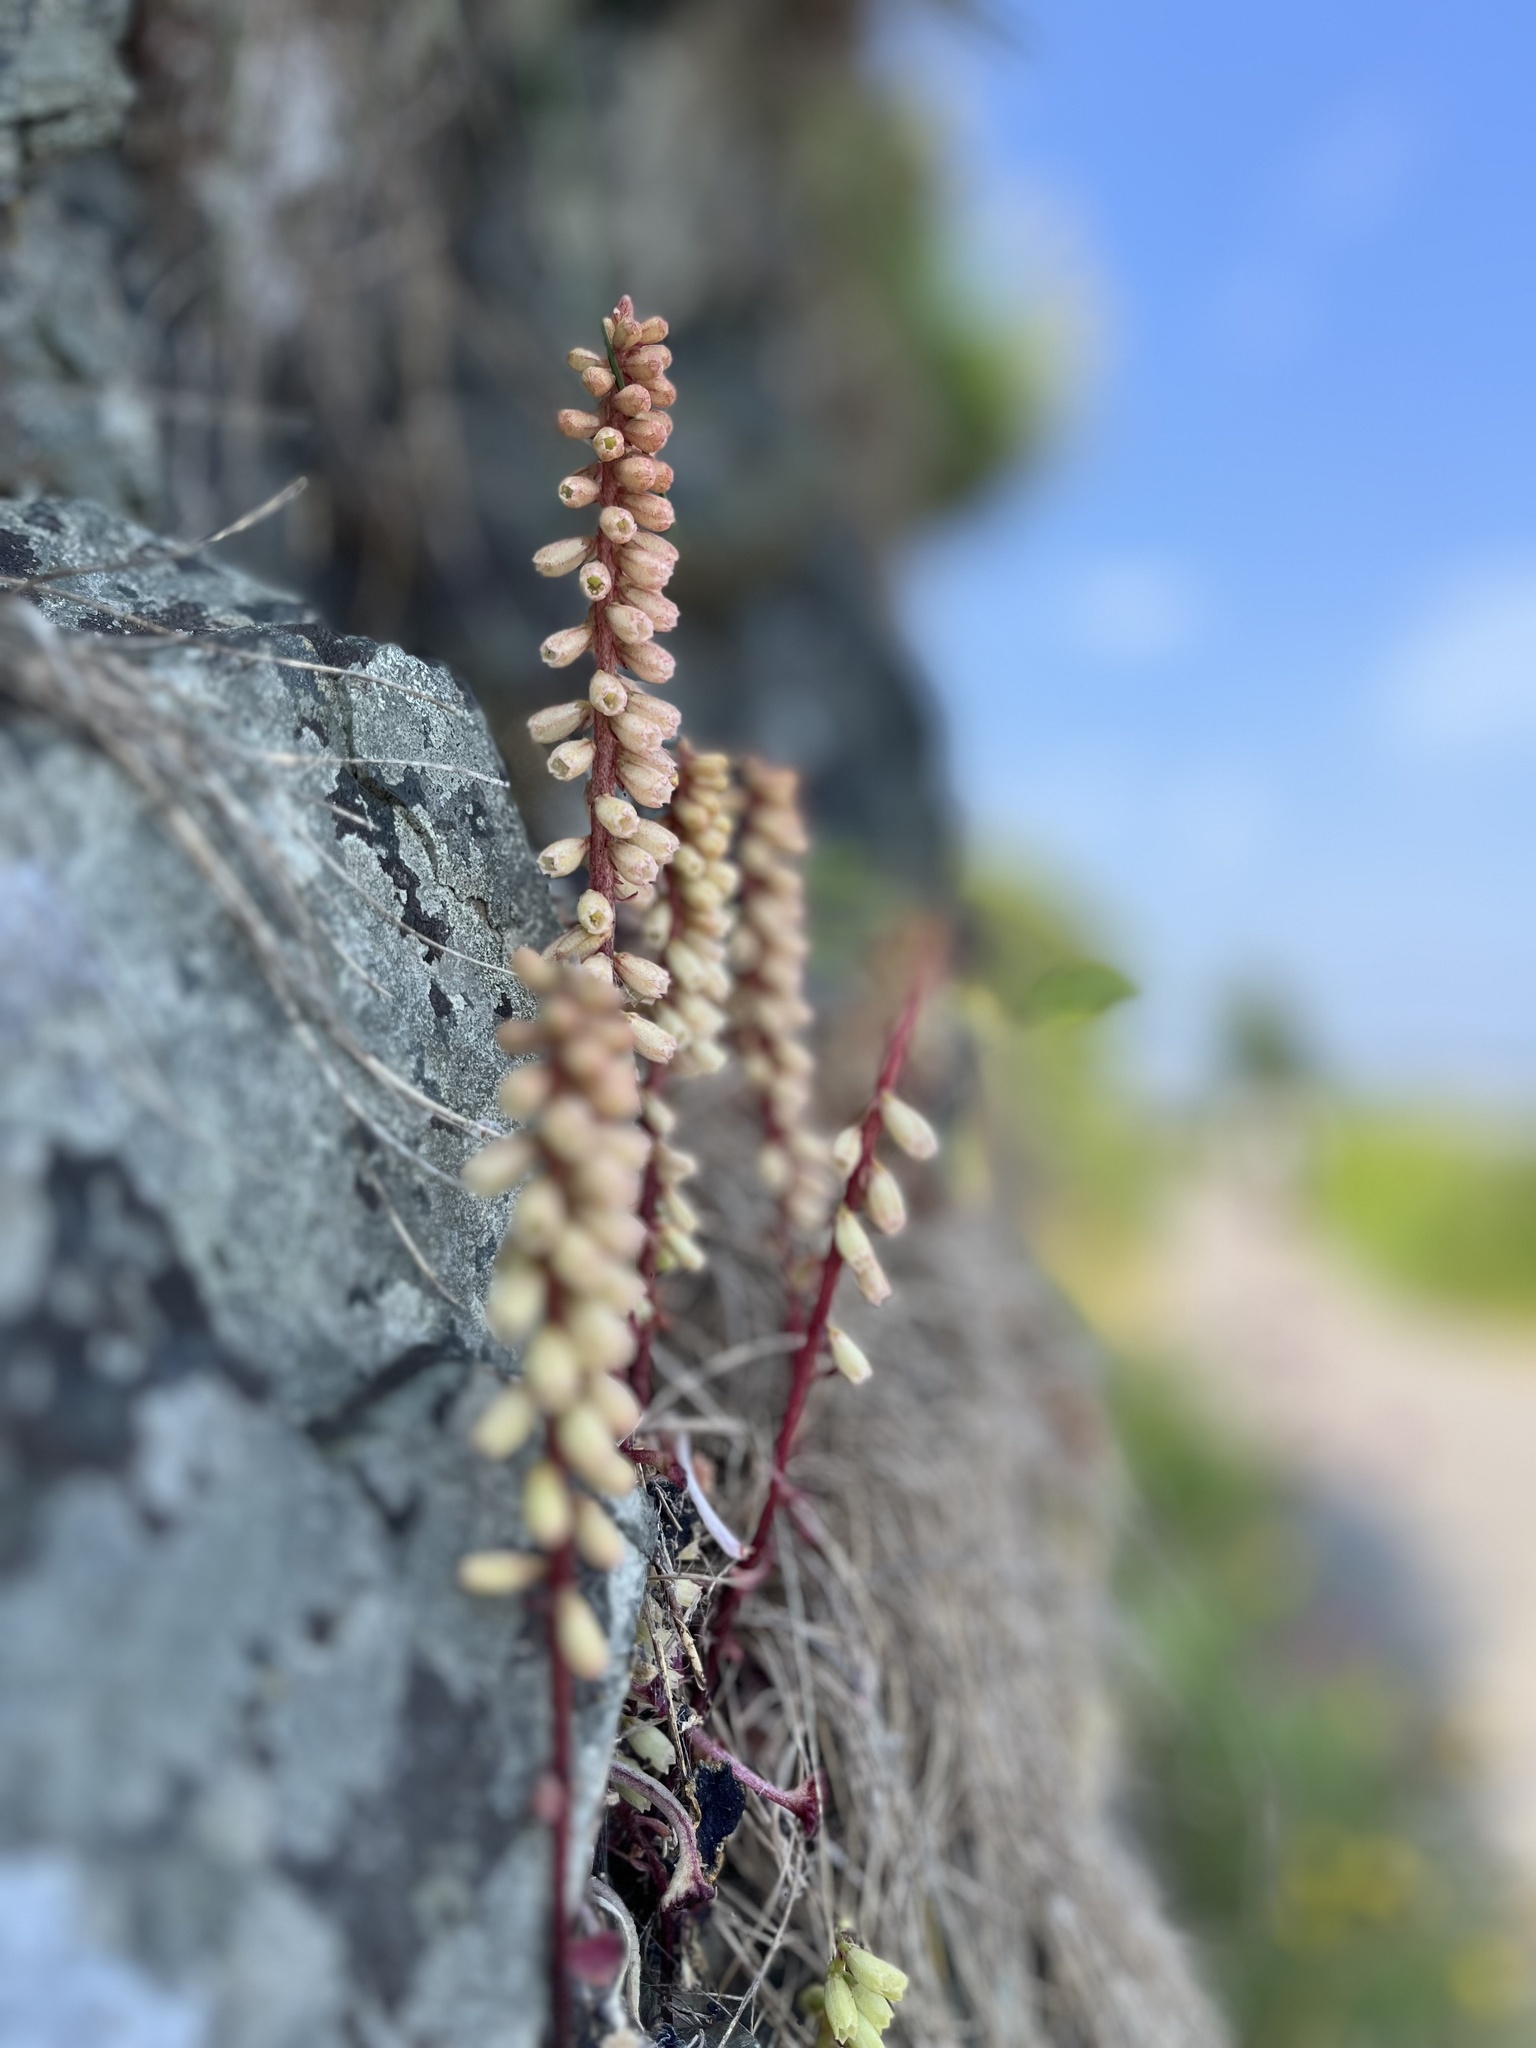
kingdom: Plantae
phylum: Tracheophyta
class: Magnoliopsida
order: Saxifragales
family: Crassulaceae
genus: Umbilicus
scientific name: Umbilicus rupestris
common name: Navelwort
